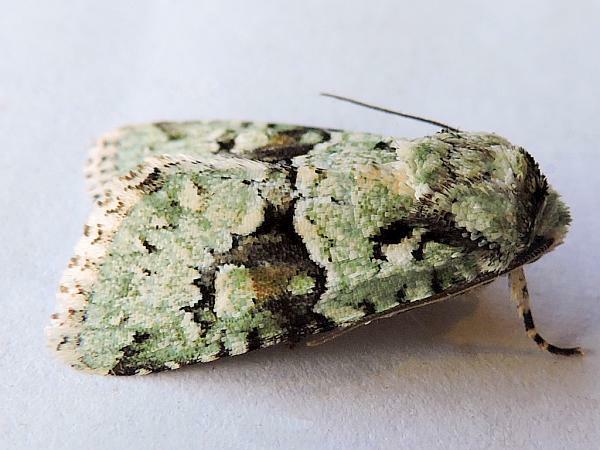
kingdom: Animalia
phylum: Arthropoda
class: Insecta
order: Lepidoptera
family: Noctuidae
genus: Lacinipolia
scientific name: Lacinipolia implicata
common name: Implicit arches
